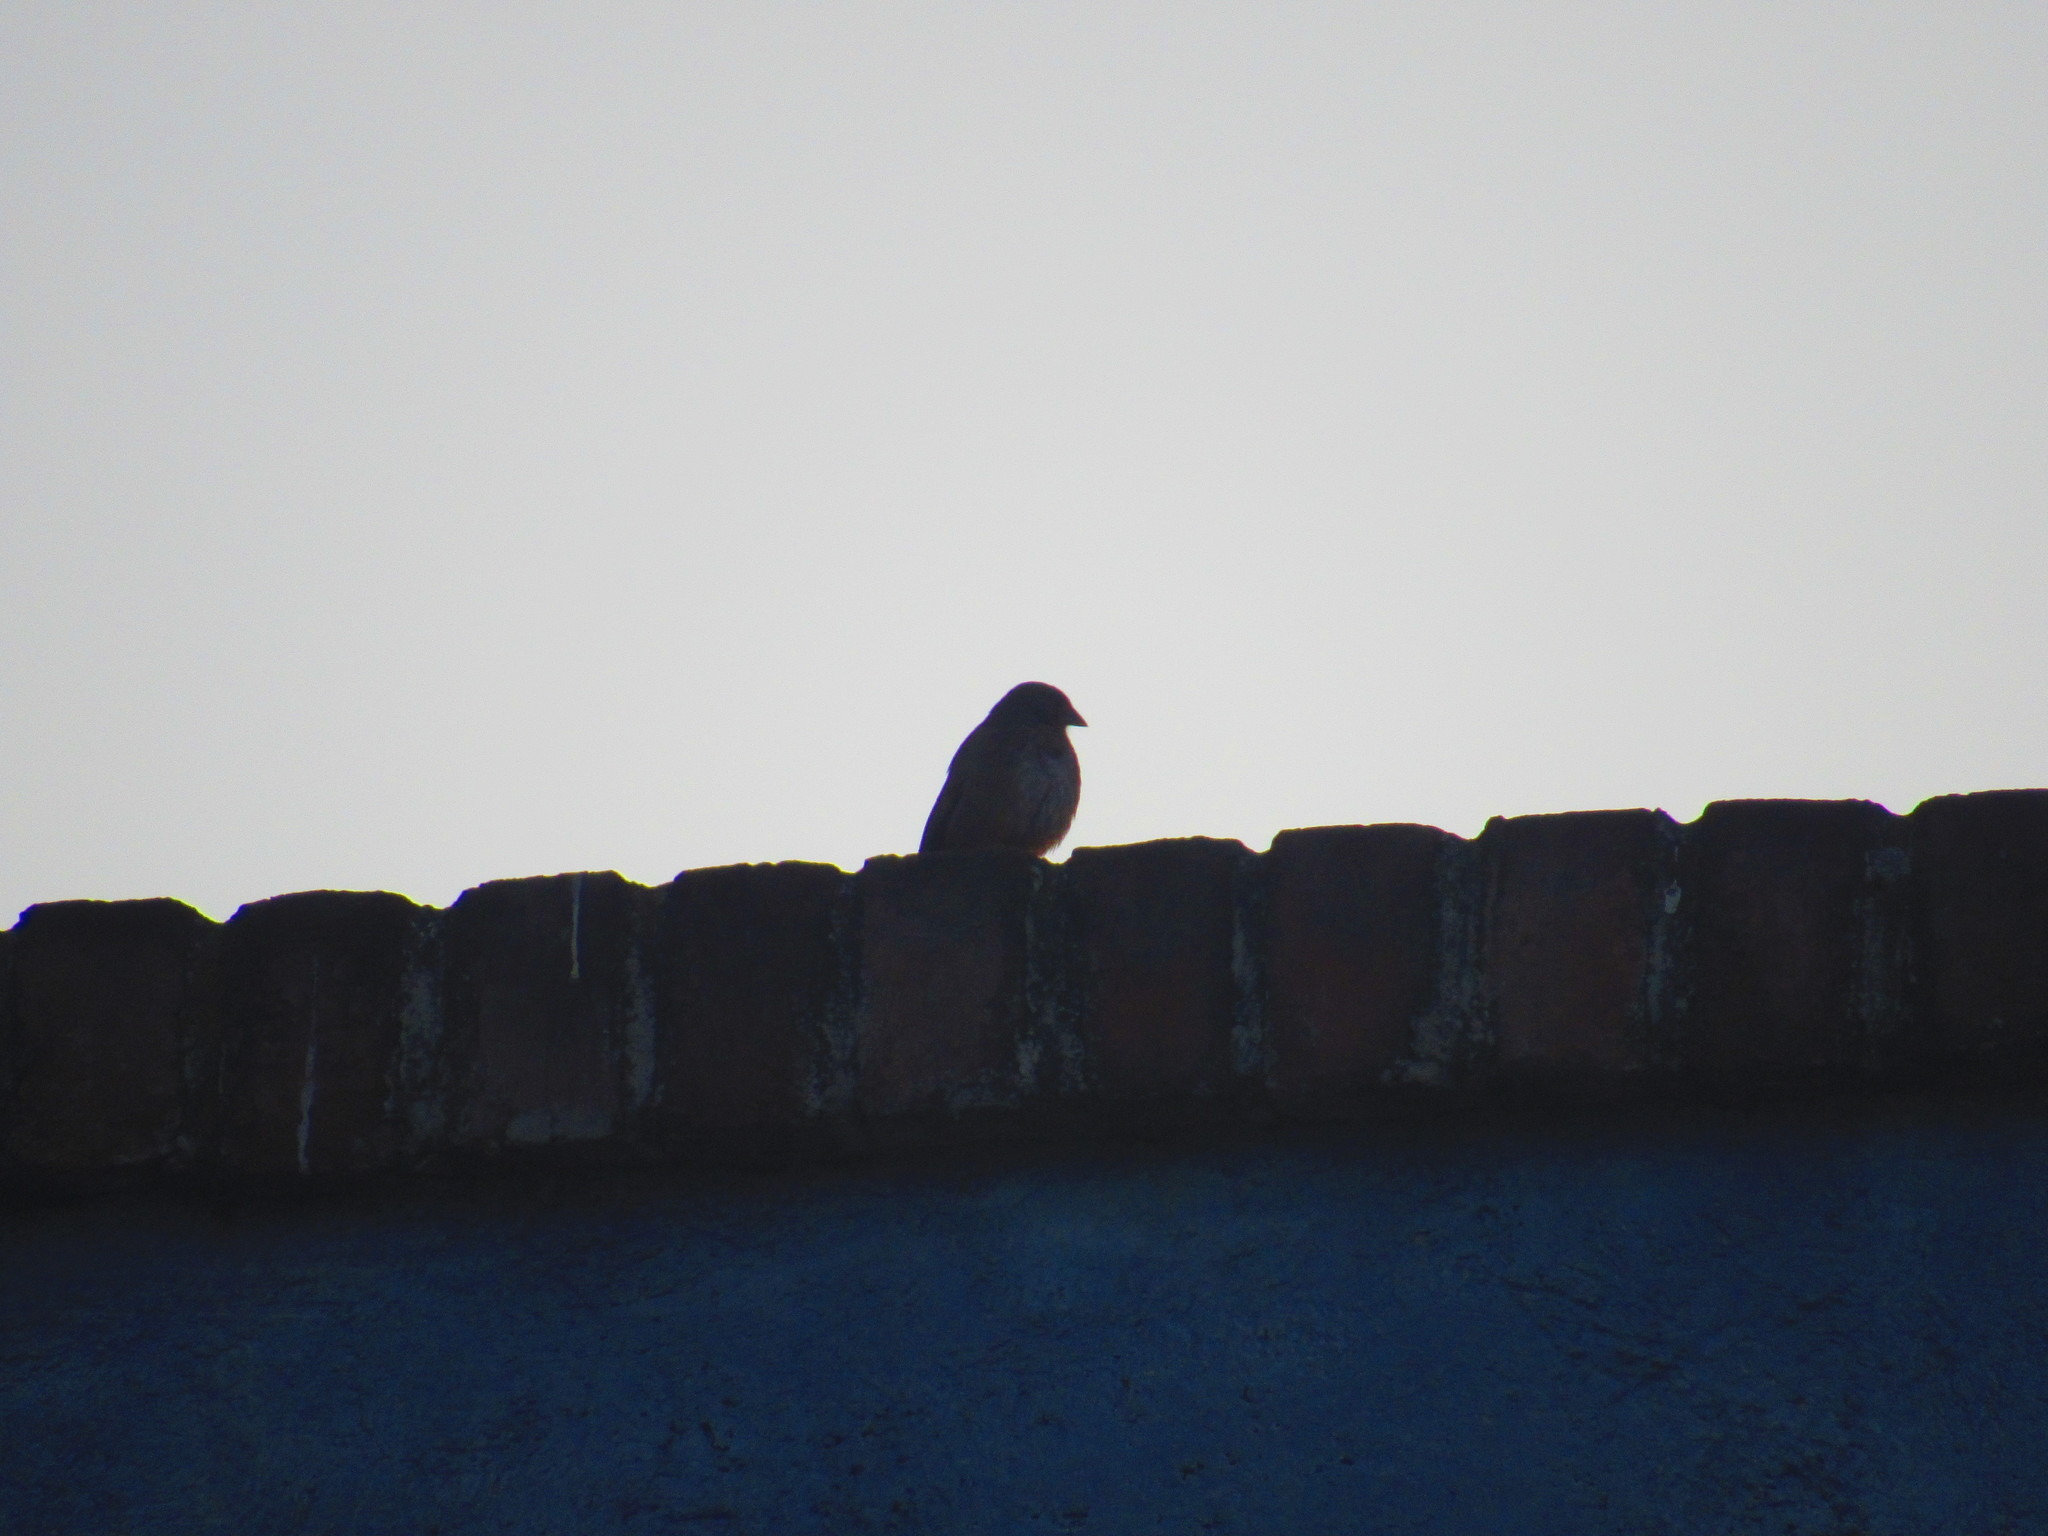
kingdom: Animalia
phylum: Chordata
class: Aves
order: Passeriformes
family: Passerellidae
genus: Melozone
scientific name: Melozone fusca
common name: Canyon towhee
